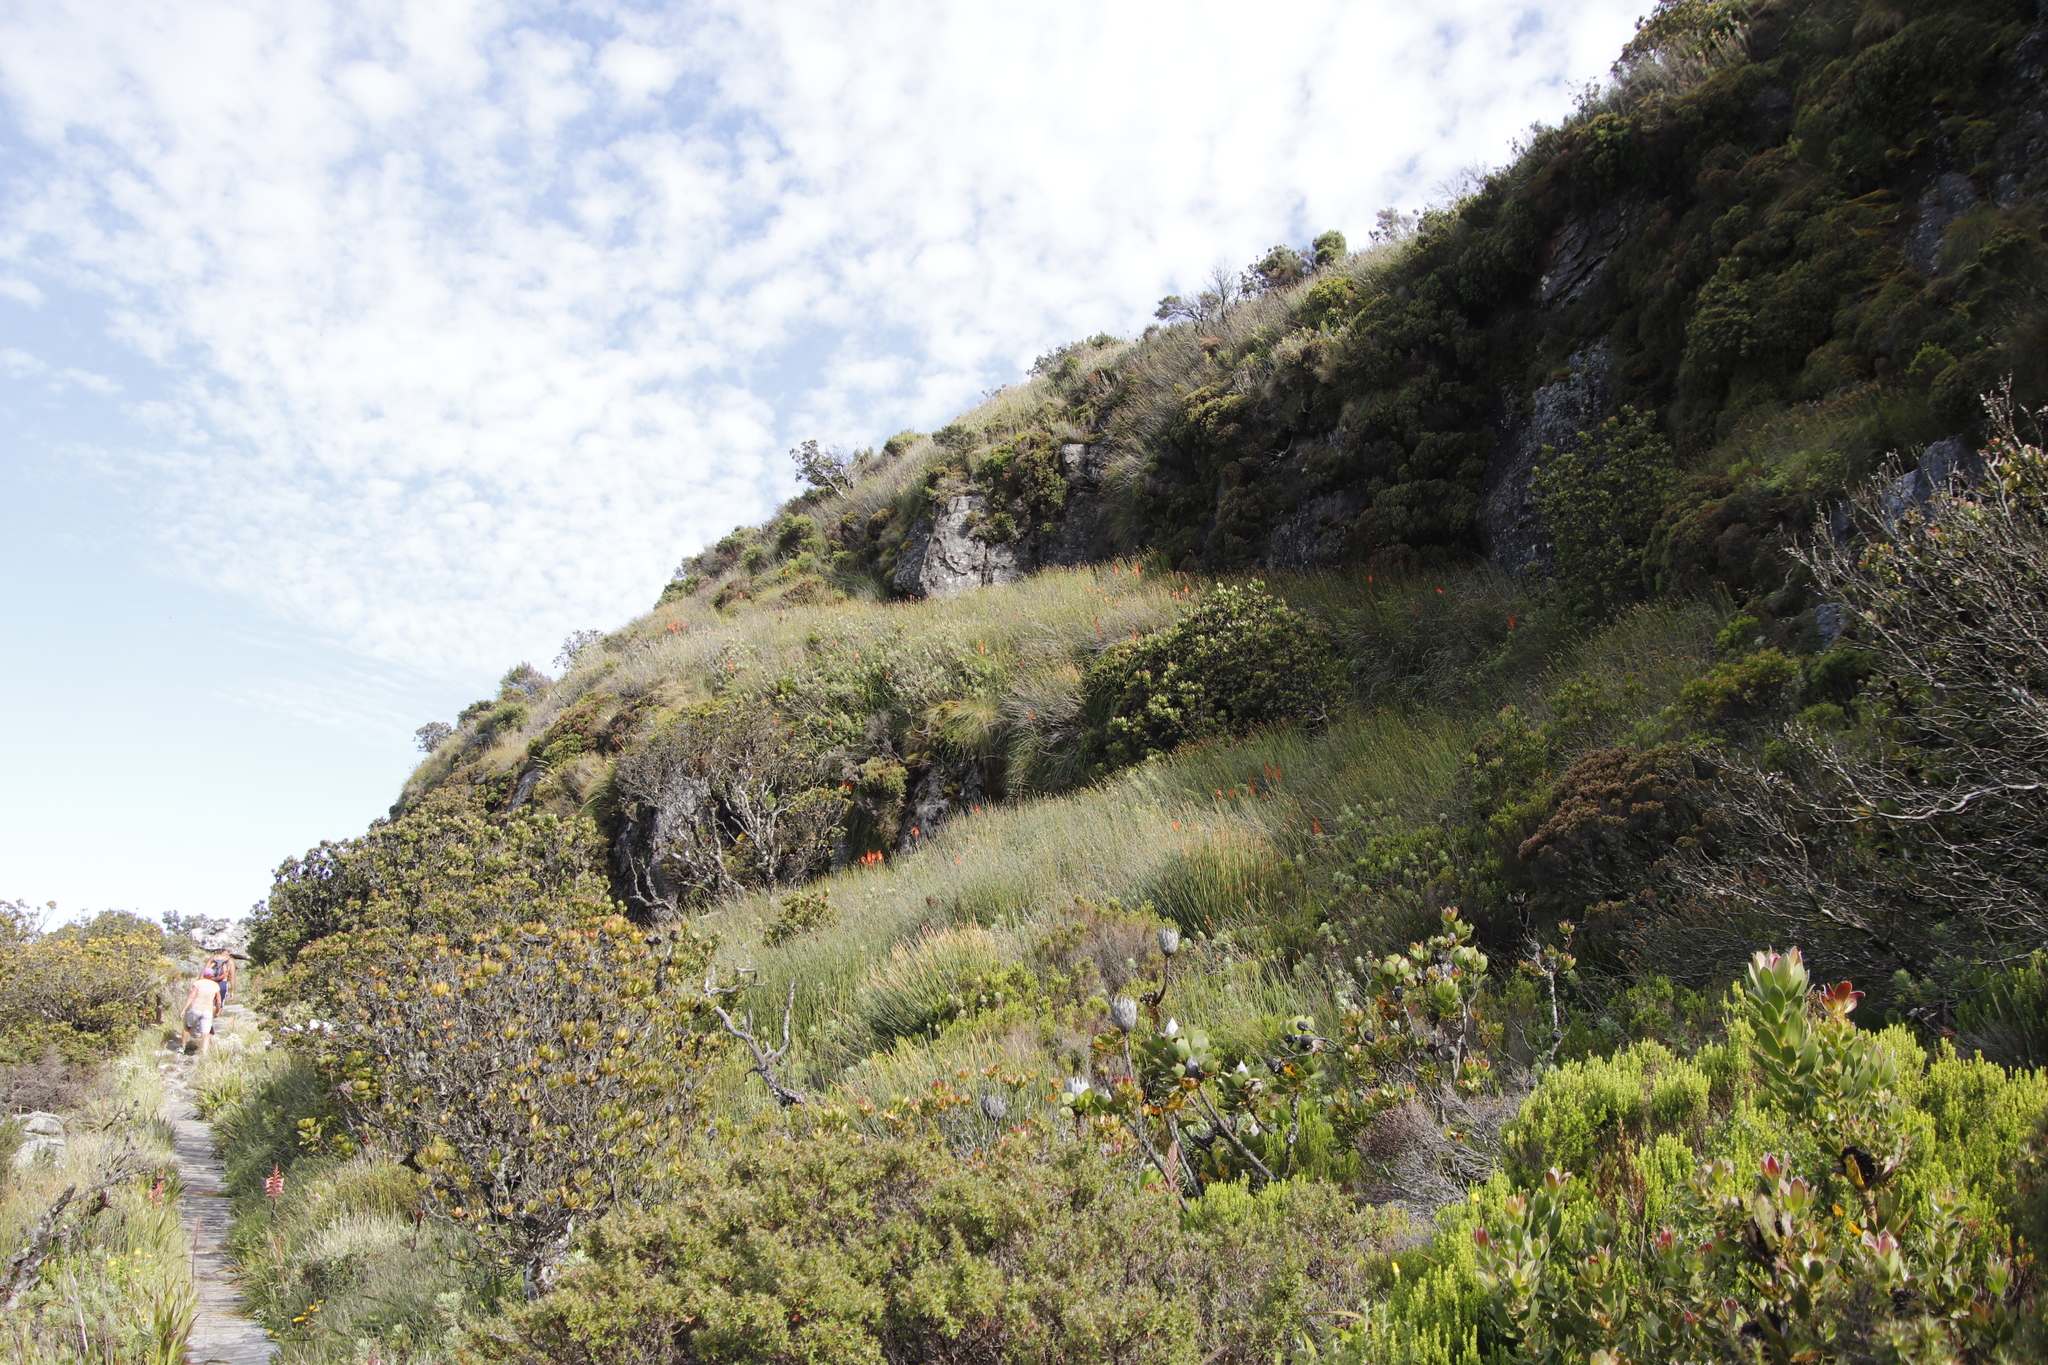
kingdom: Plantae
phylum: Tracheophyta
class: Liliopsida
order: Asparagales
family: Asphodelaceae
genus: Kniphofia
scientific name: Kniphofia tabularis
